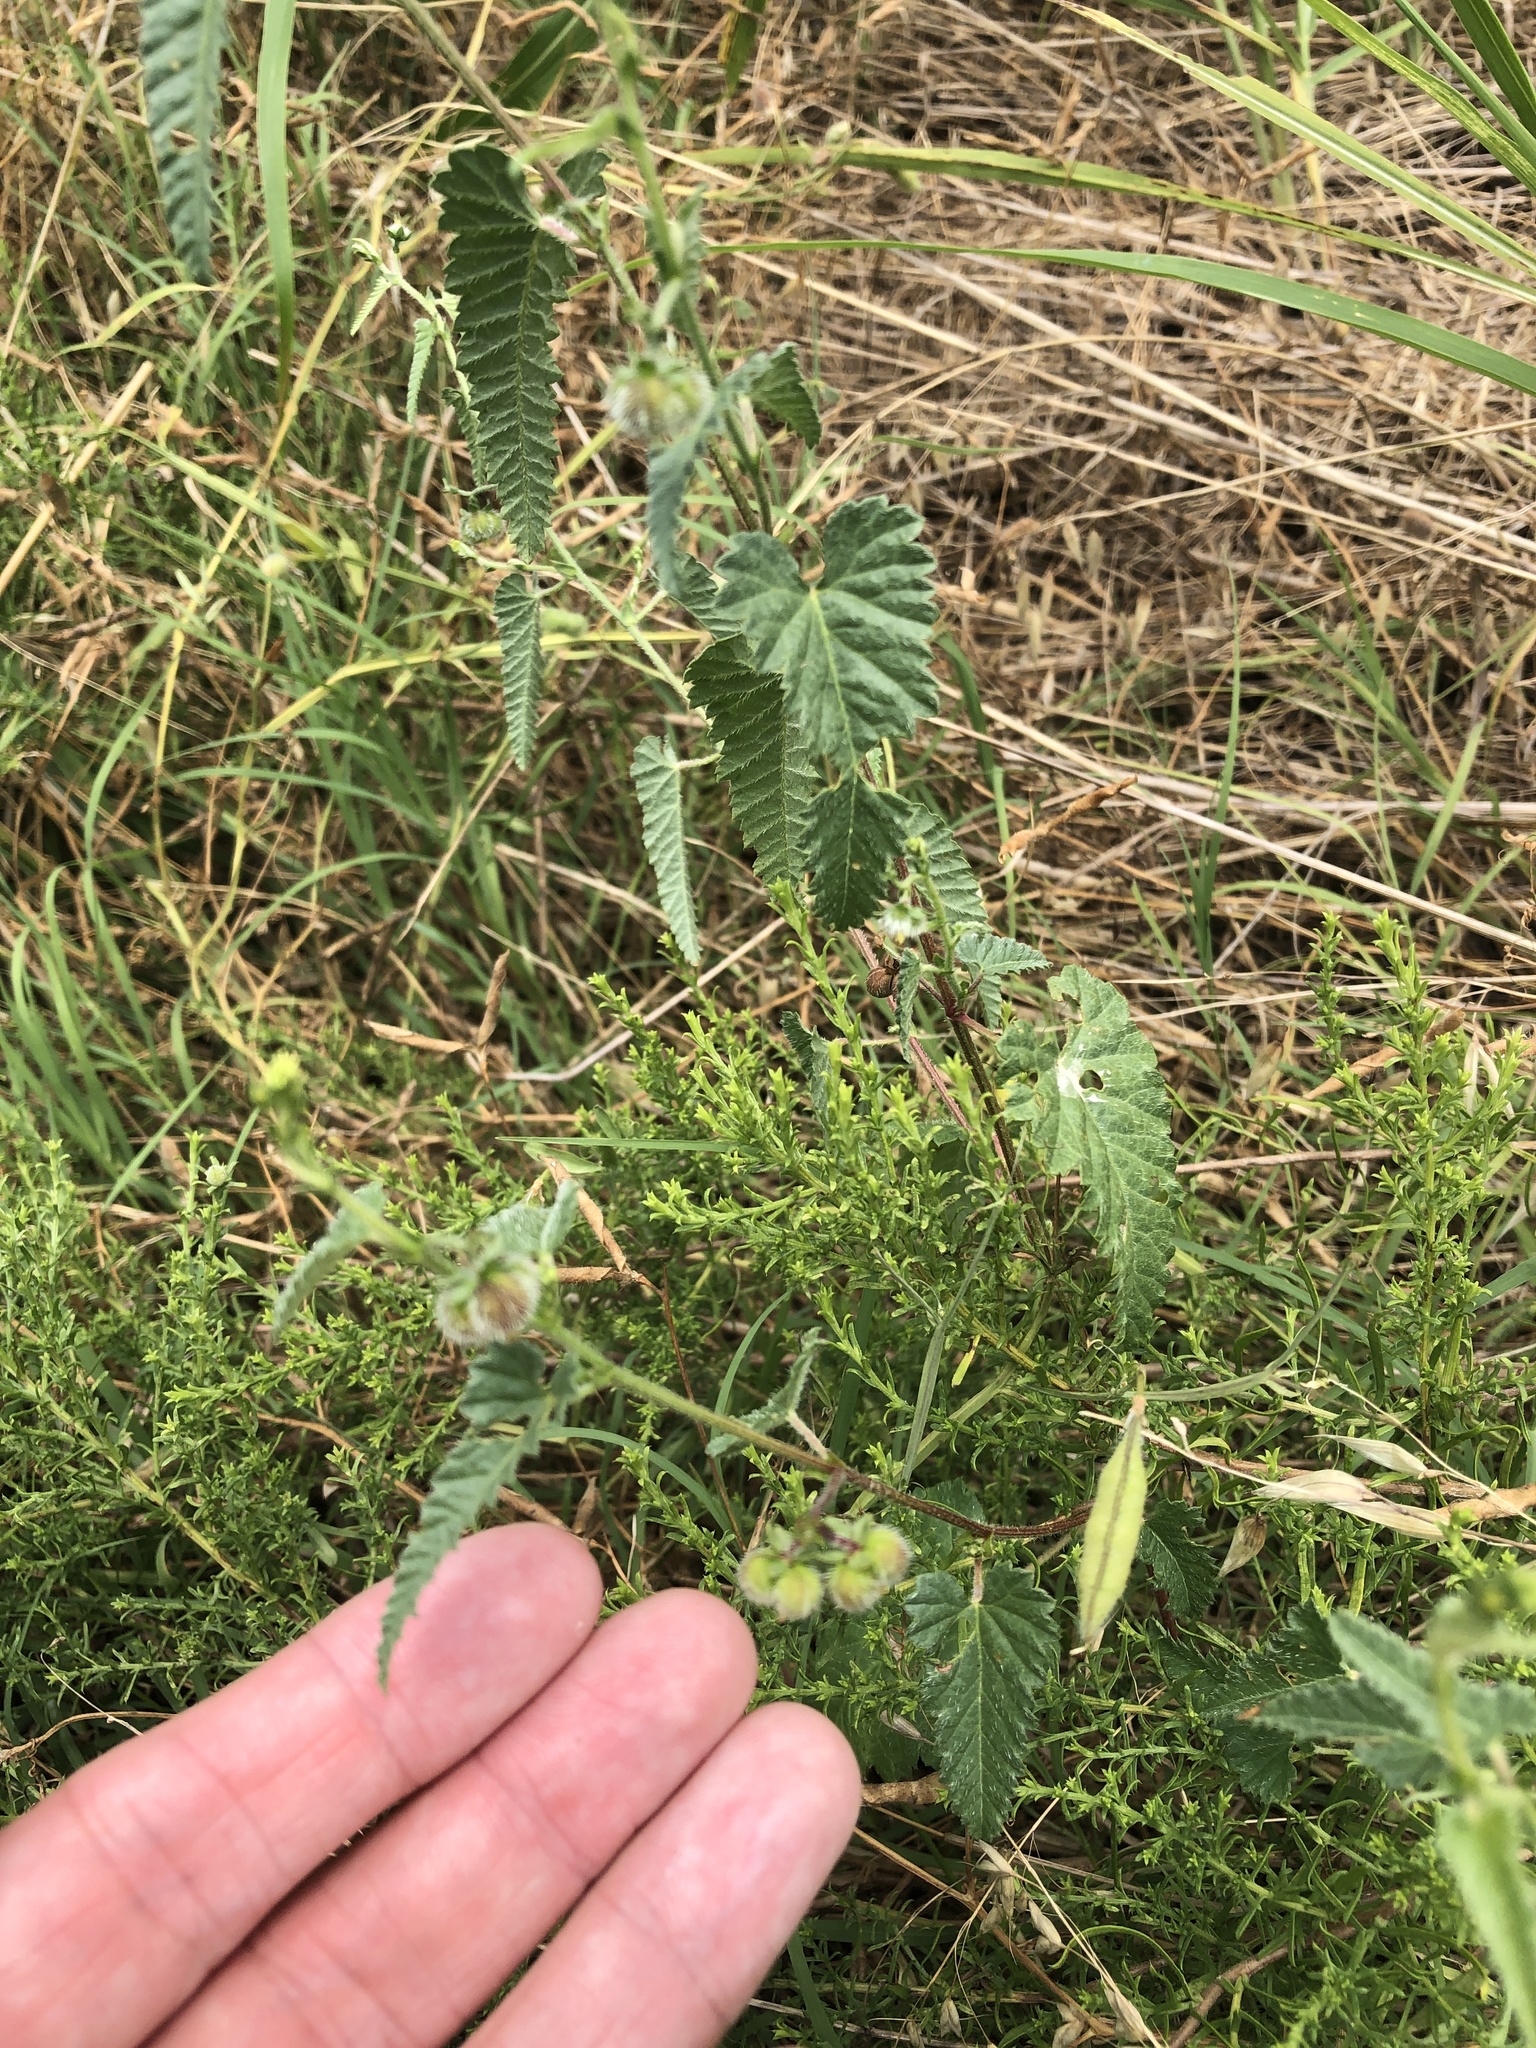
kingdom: Plantae
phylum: Tracheophyta
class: Magnoliopsida
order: Malpighiales
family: Euphorbiaceae
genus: Tragia
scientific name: Tragia ramosa
